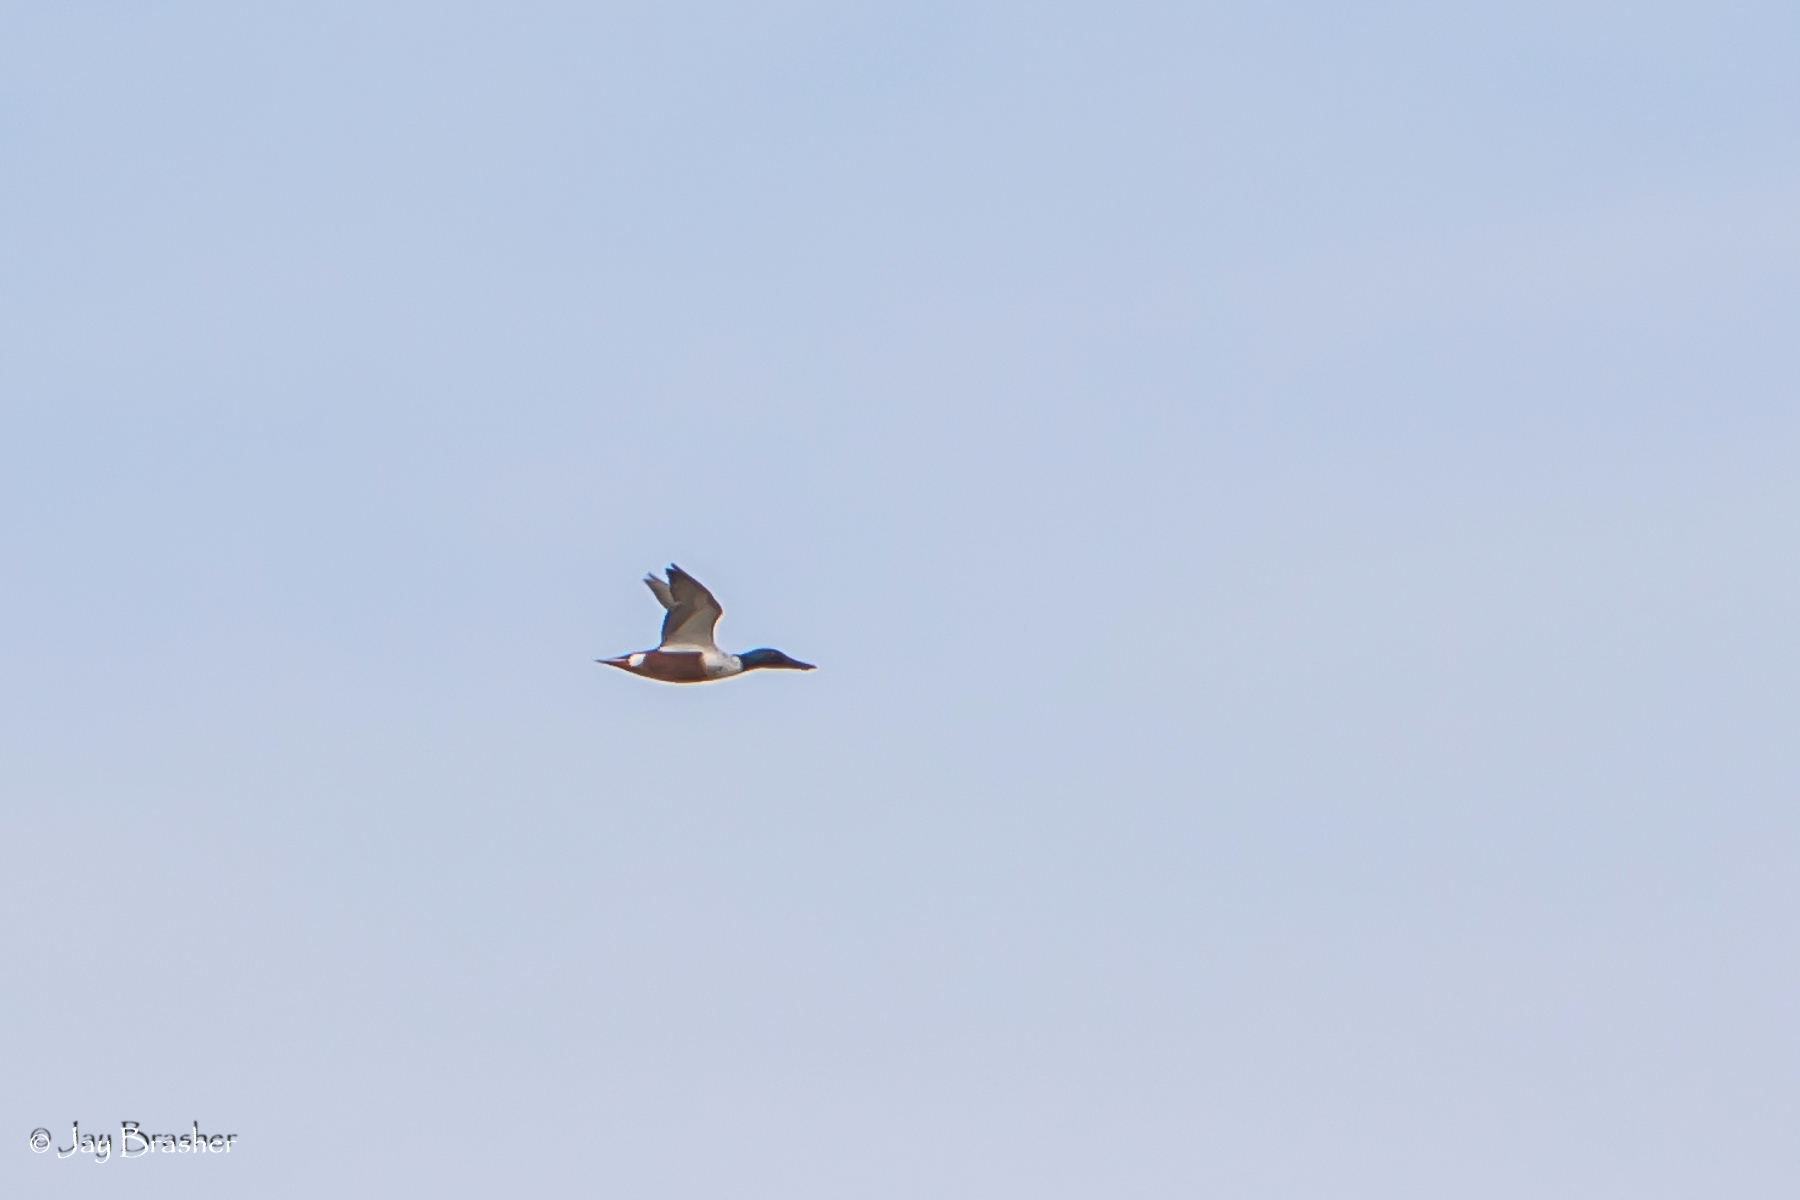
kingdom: Animalia
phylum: Chordata
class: Aves
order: Anseriformes
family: Anatidae
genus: Spatula
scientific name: Spatula clypeata
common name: Northern shoveler
